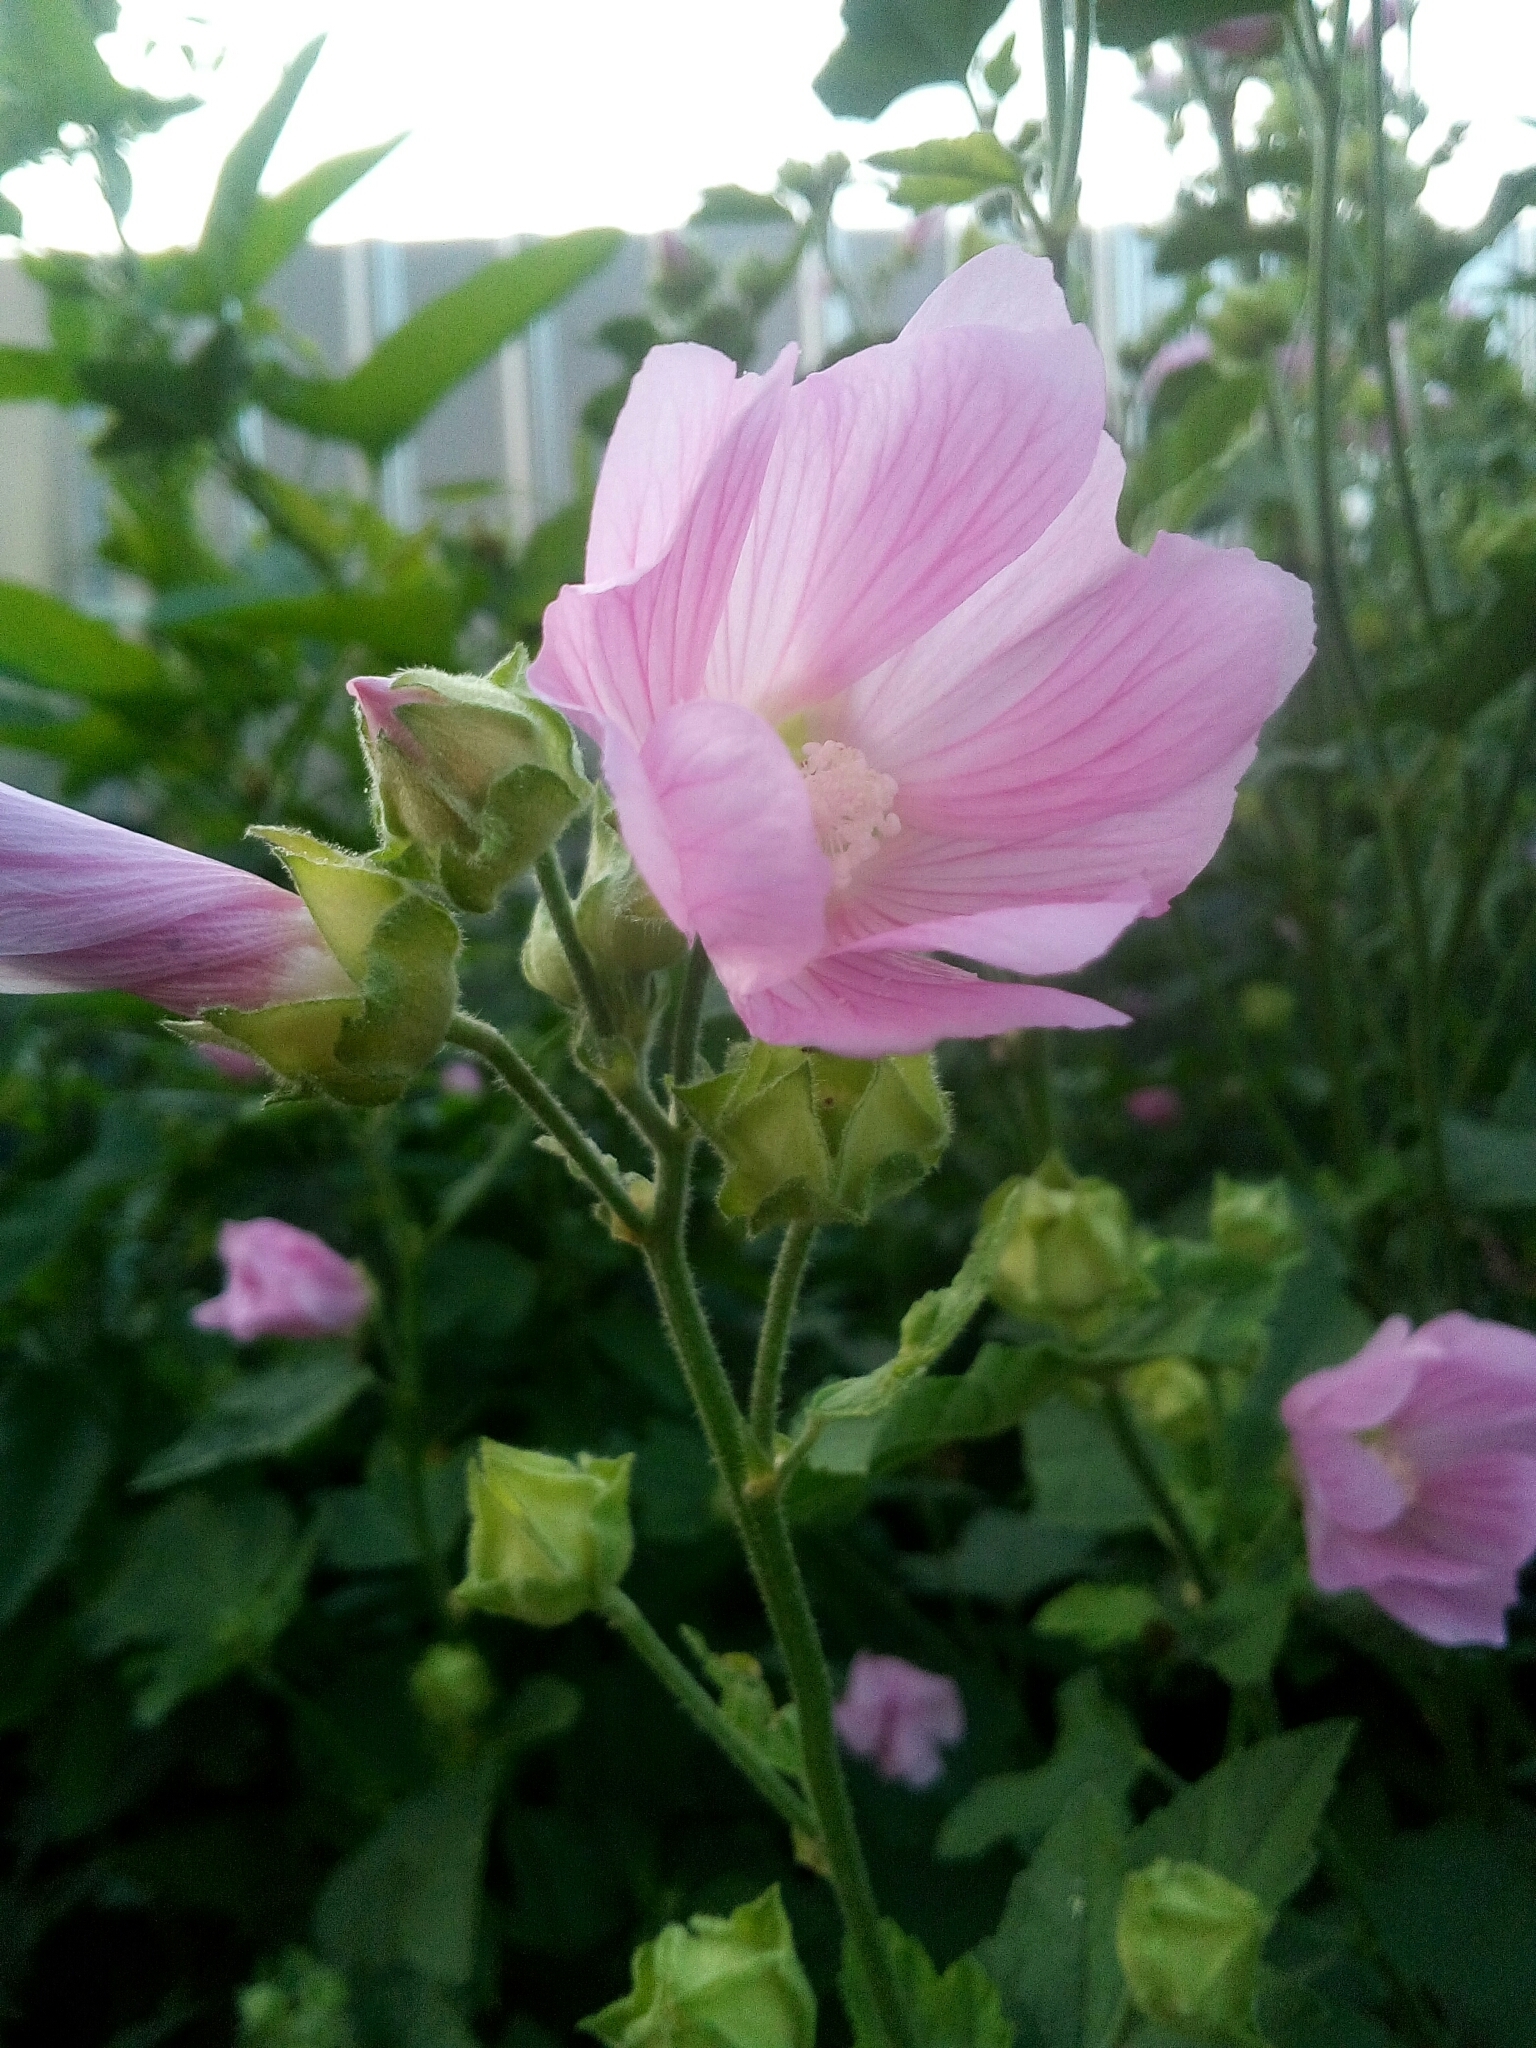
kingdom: Plantae
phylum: Tracheophyta
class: Magnoliopsida
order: Malvales
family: Malvaceae
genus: Malva
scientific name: Malva thuringiaca
